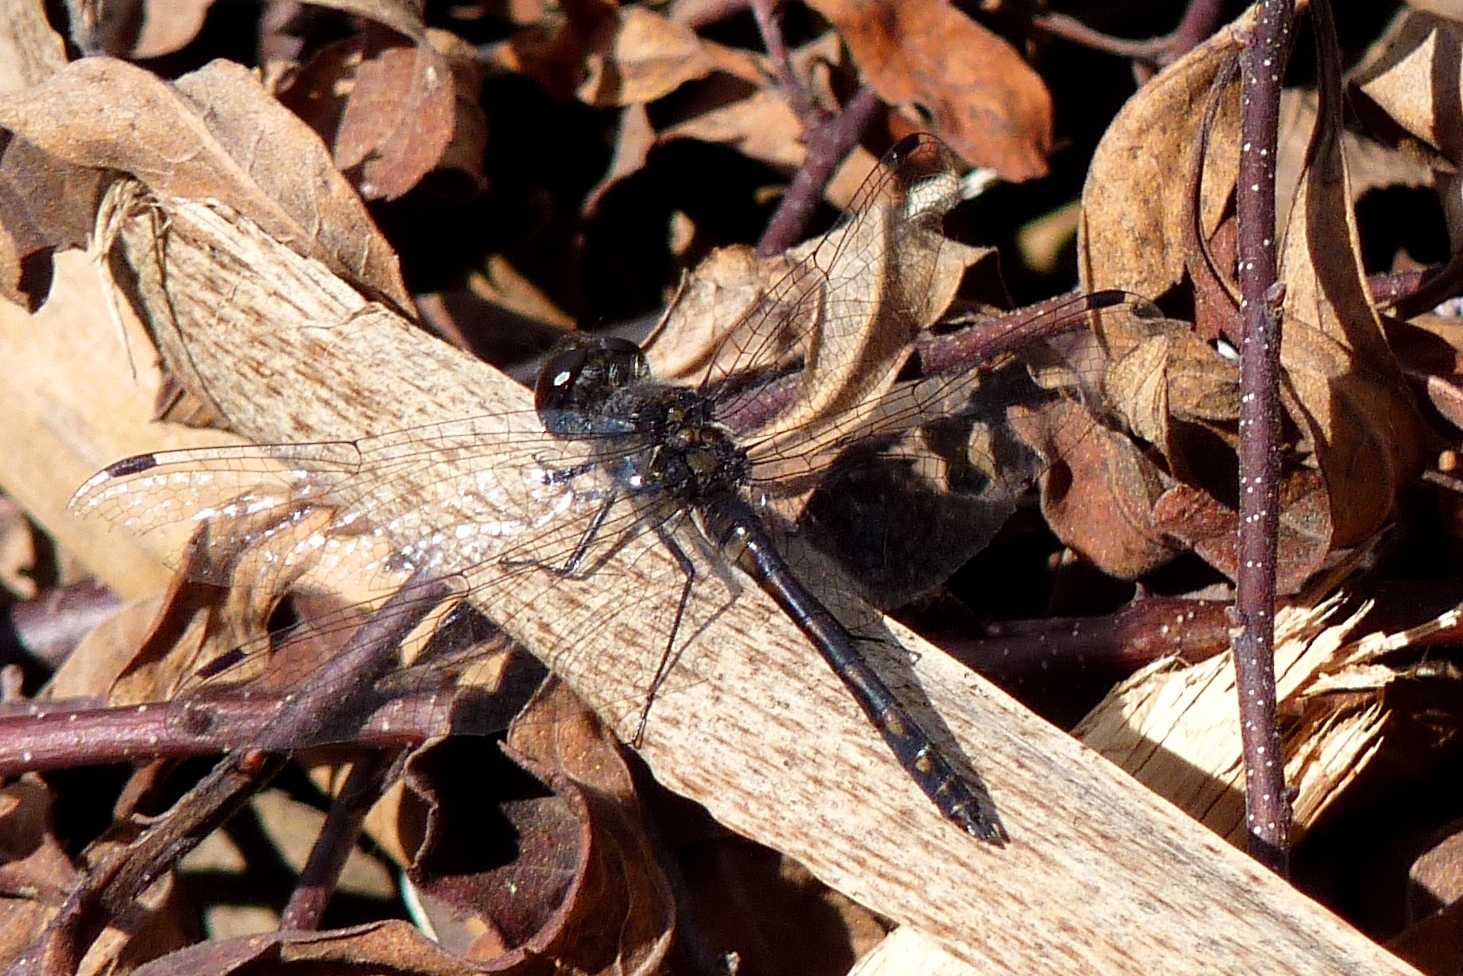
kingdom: Animalia
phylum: Arthropoda
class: Insecta
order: Odonata
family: Libellulidae
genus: Sympetrum
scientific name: Sympetrum danae
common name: Black darter
